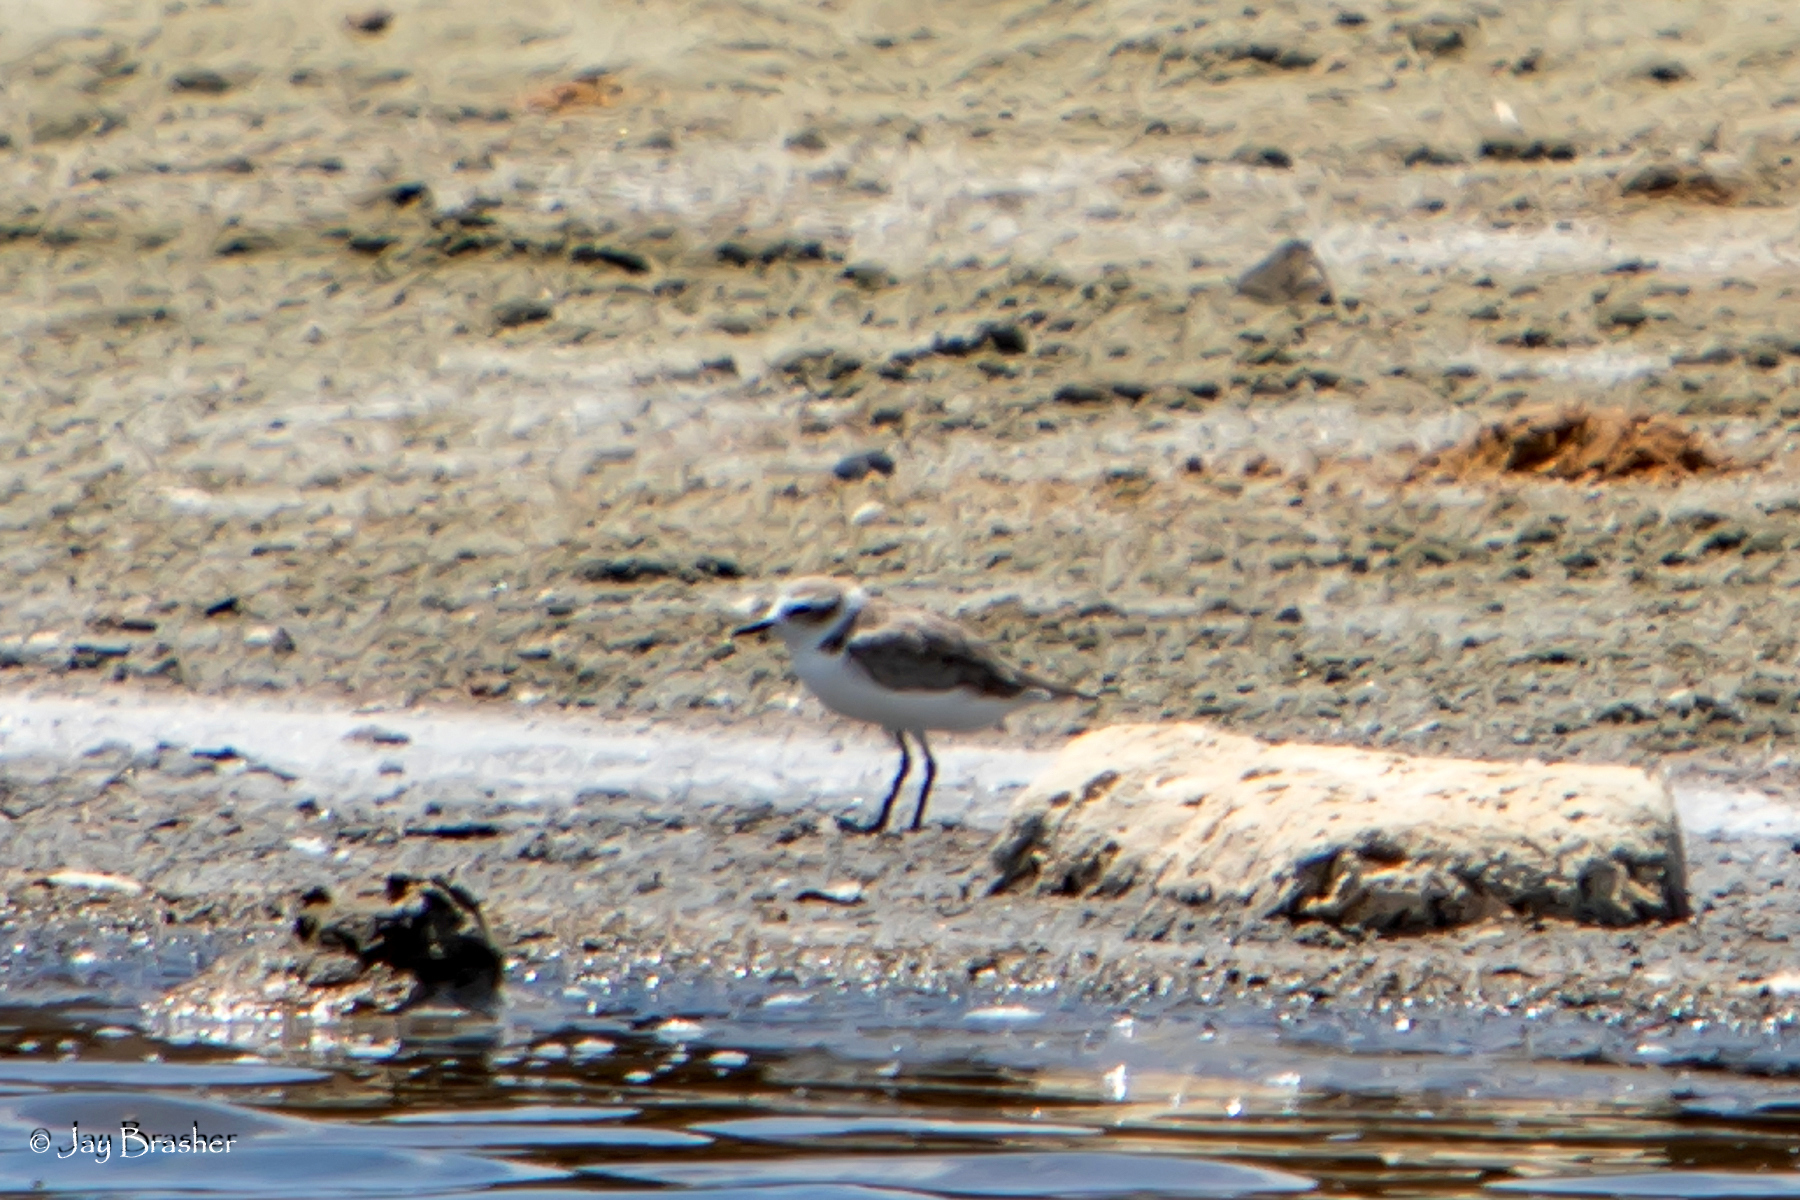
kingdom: Animalia
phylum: Chordata
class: Aves
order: Charadriiformes
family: Charadriidae
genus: Anarhynchus
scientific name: Anarhynchus
